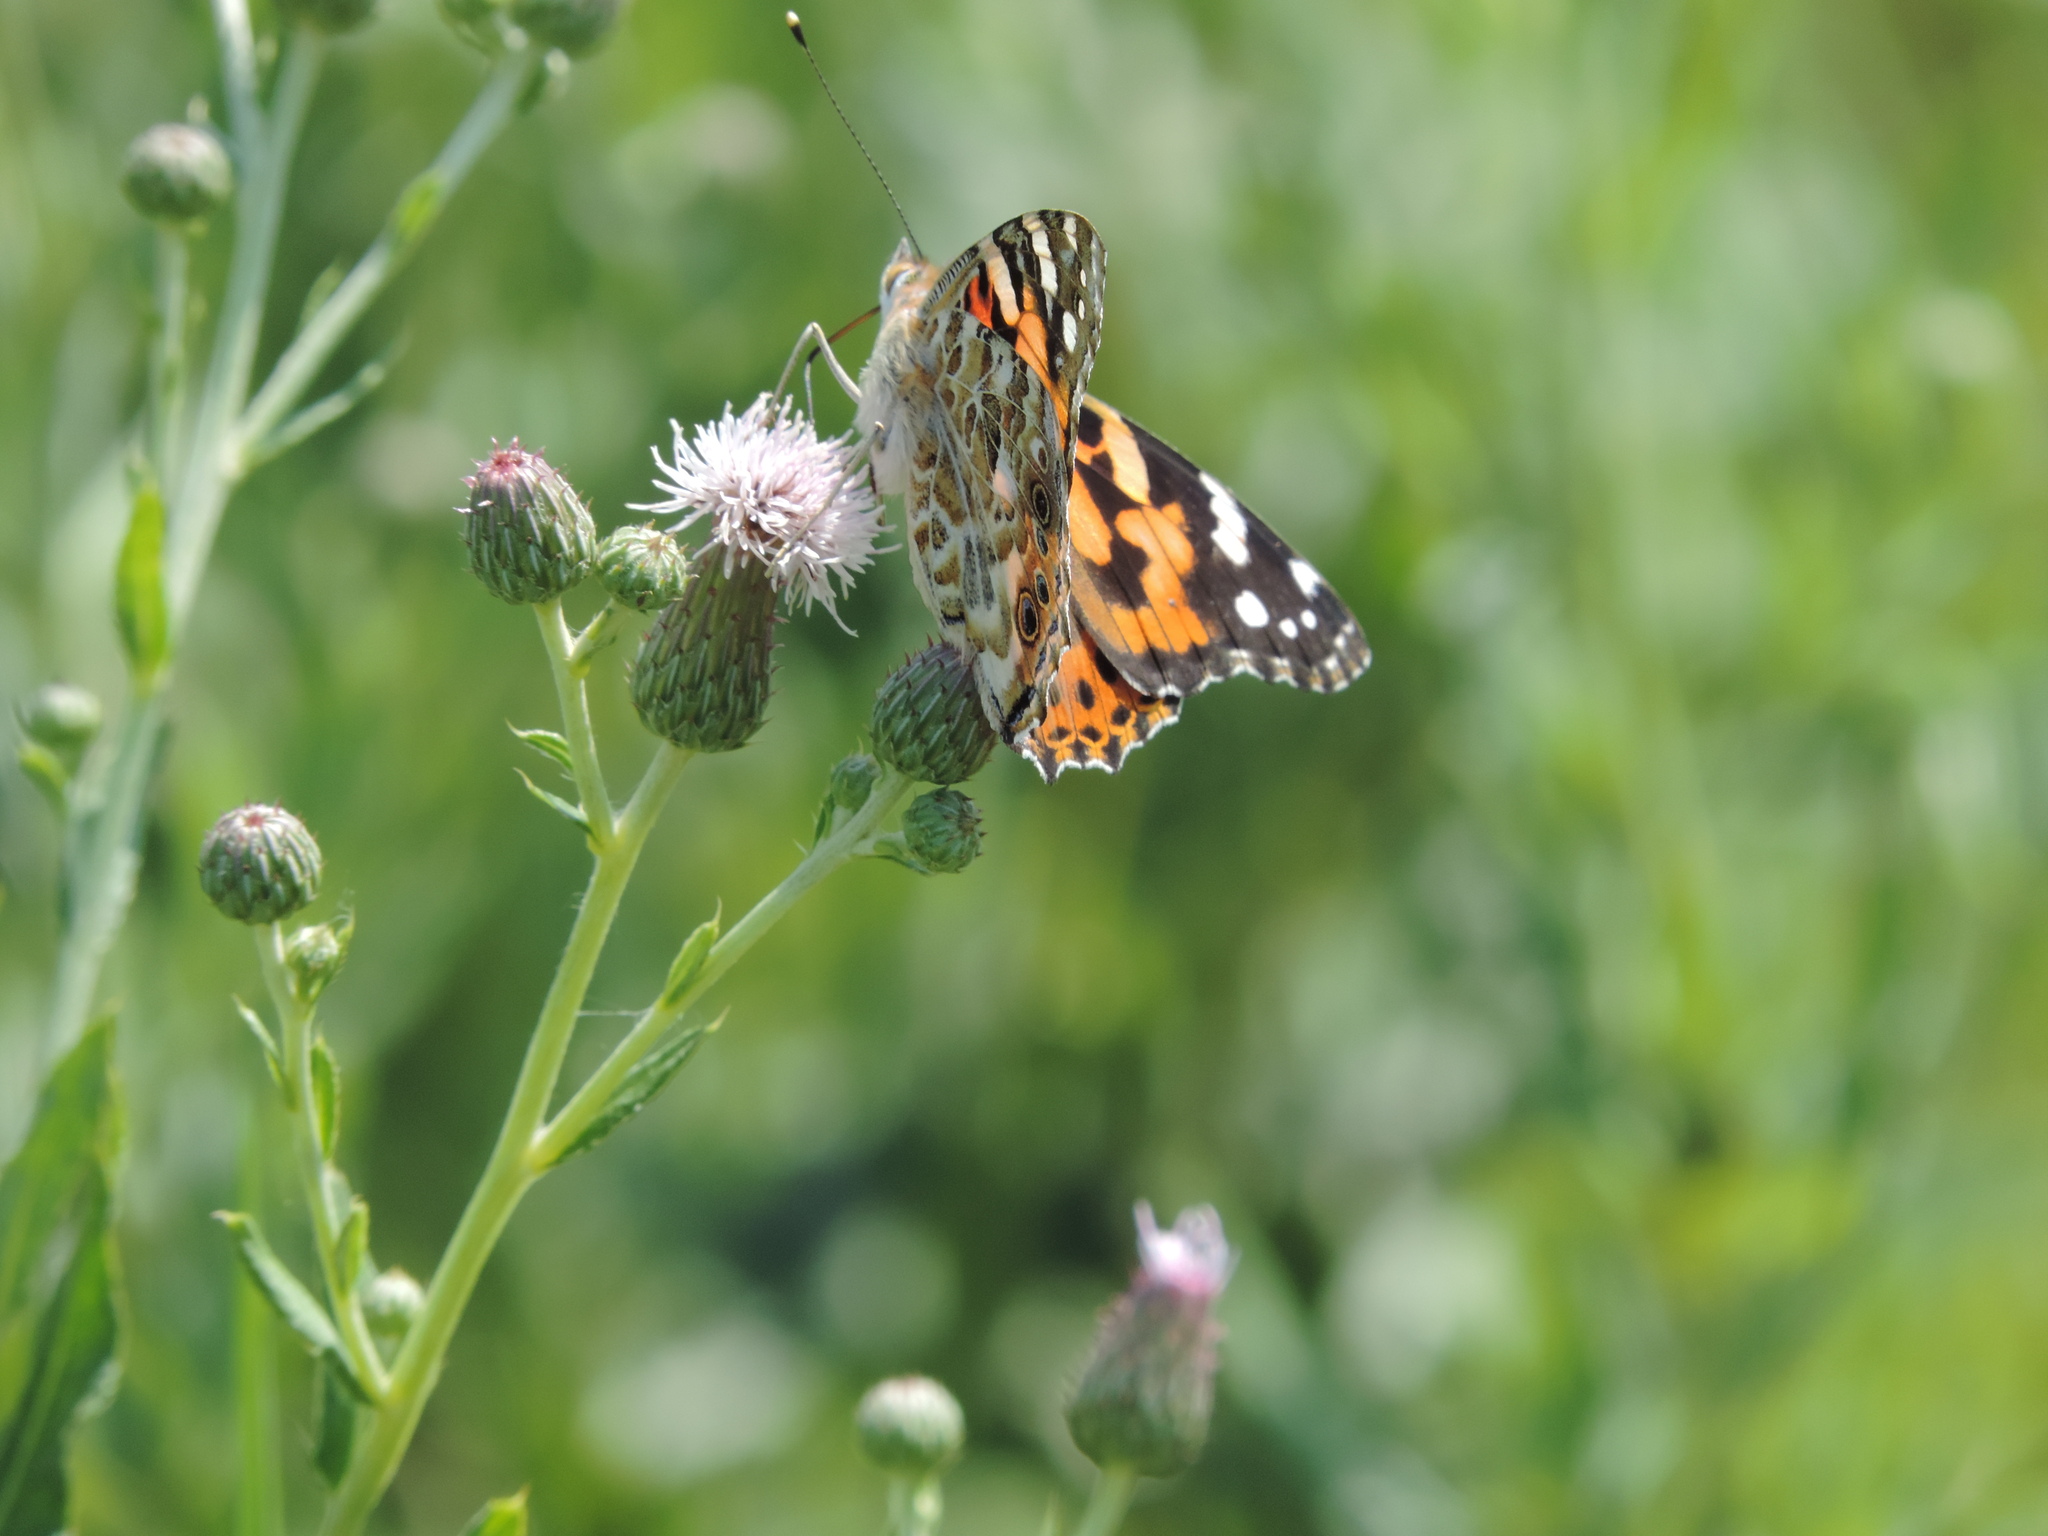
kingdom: Animalia
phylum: Arthropoda
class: Insecta
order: Lepidoptera
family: Nymphalidae
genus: Vanessa
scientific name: Vanessa cardui
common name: Painted lady
